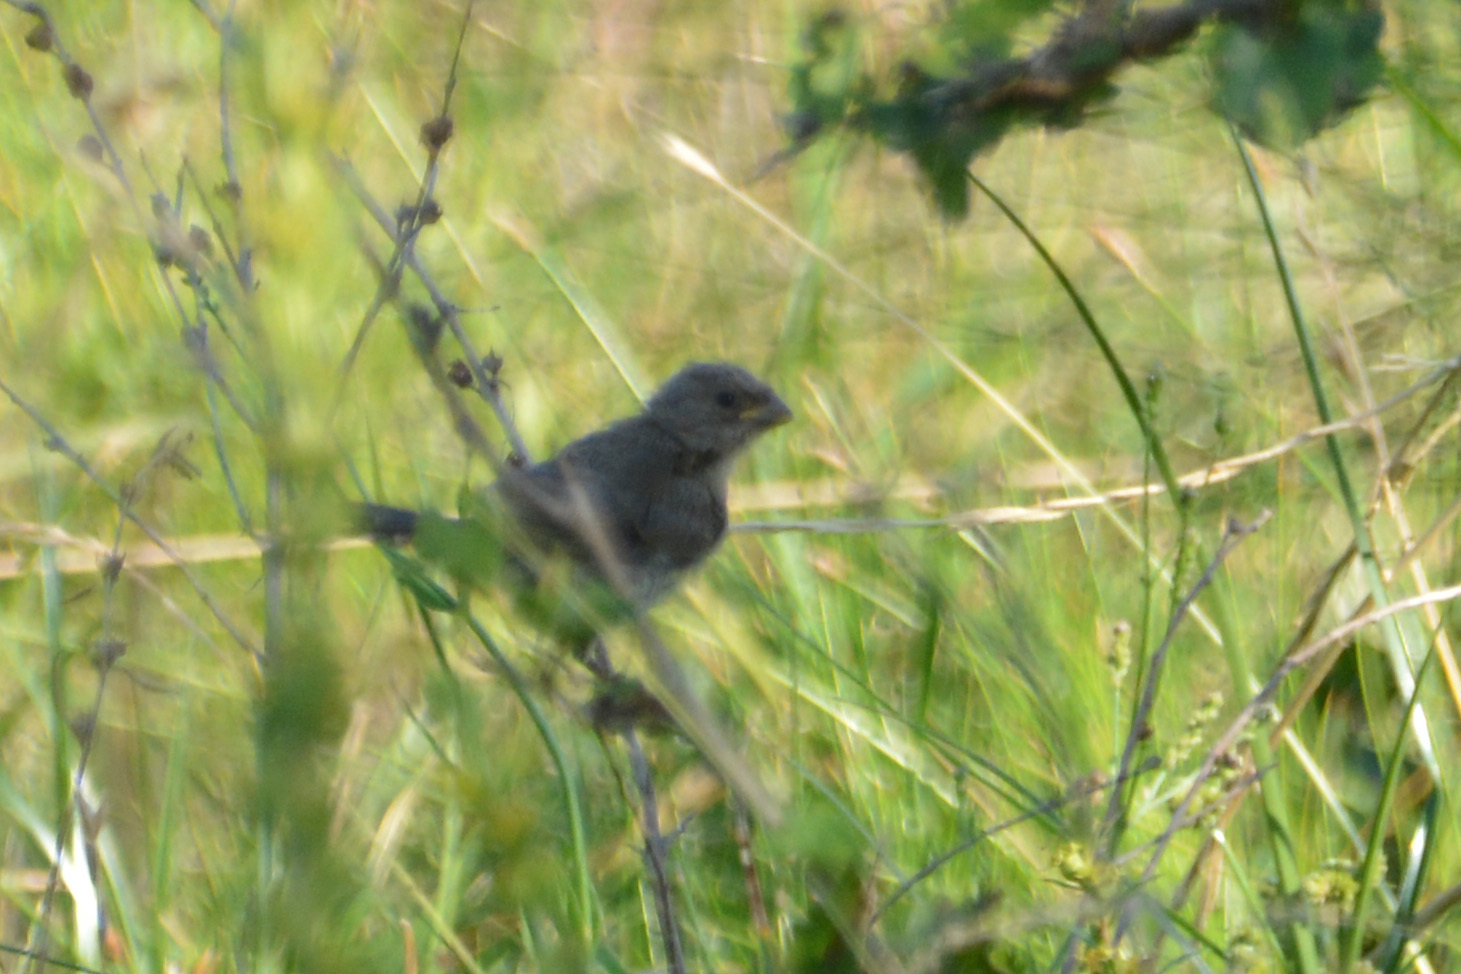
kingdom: Animalia
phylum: Chordata
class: Aves
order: Passeriformes
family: Thraupidae
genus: Sporophila
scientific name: Sporophila caerulescens
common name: Double-collared seedeater
